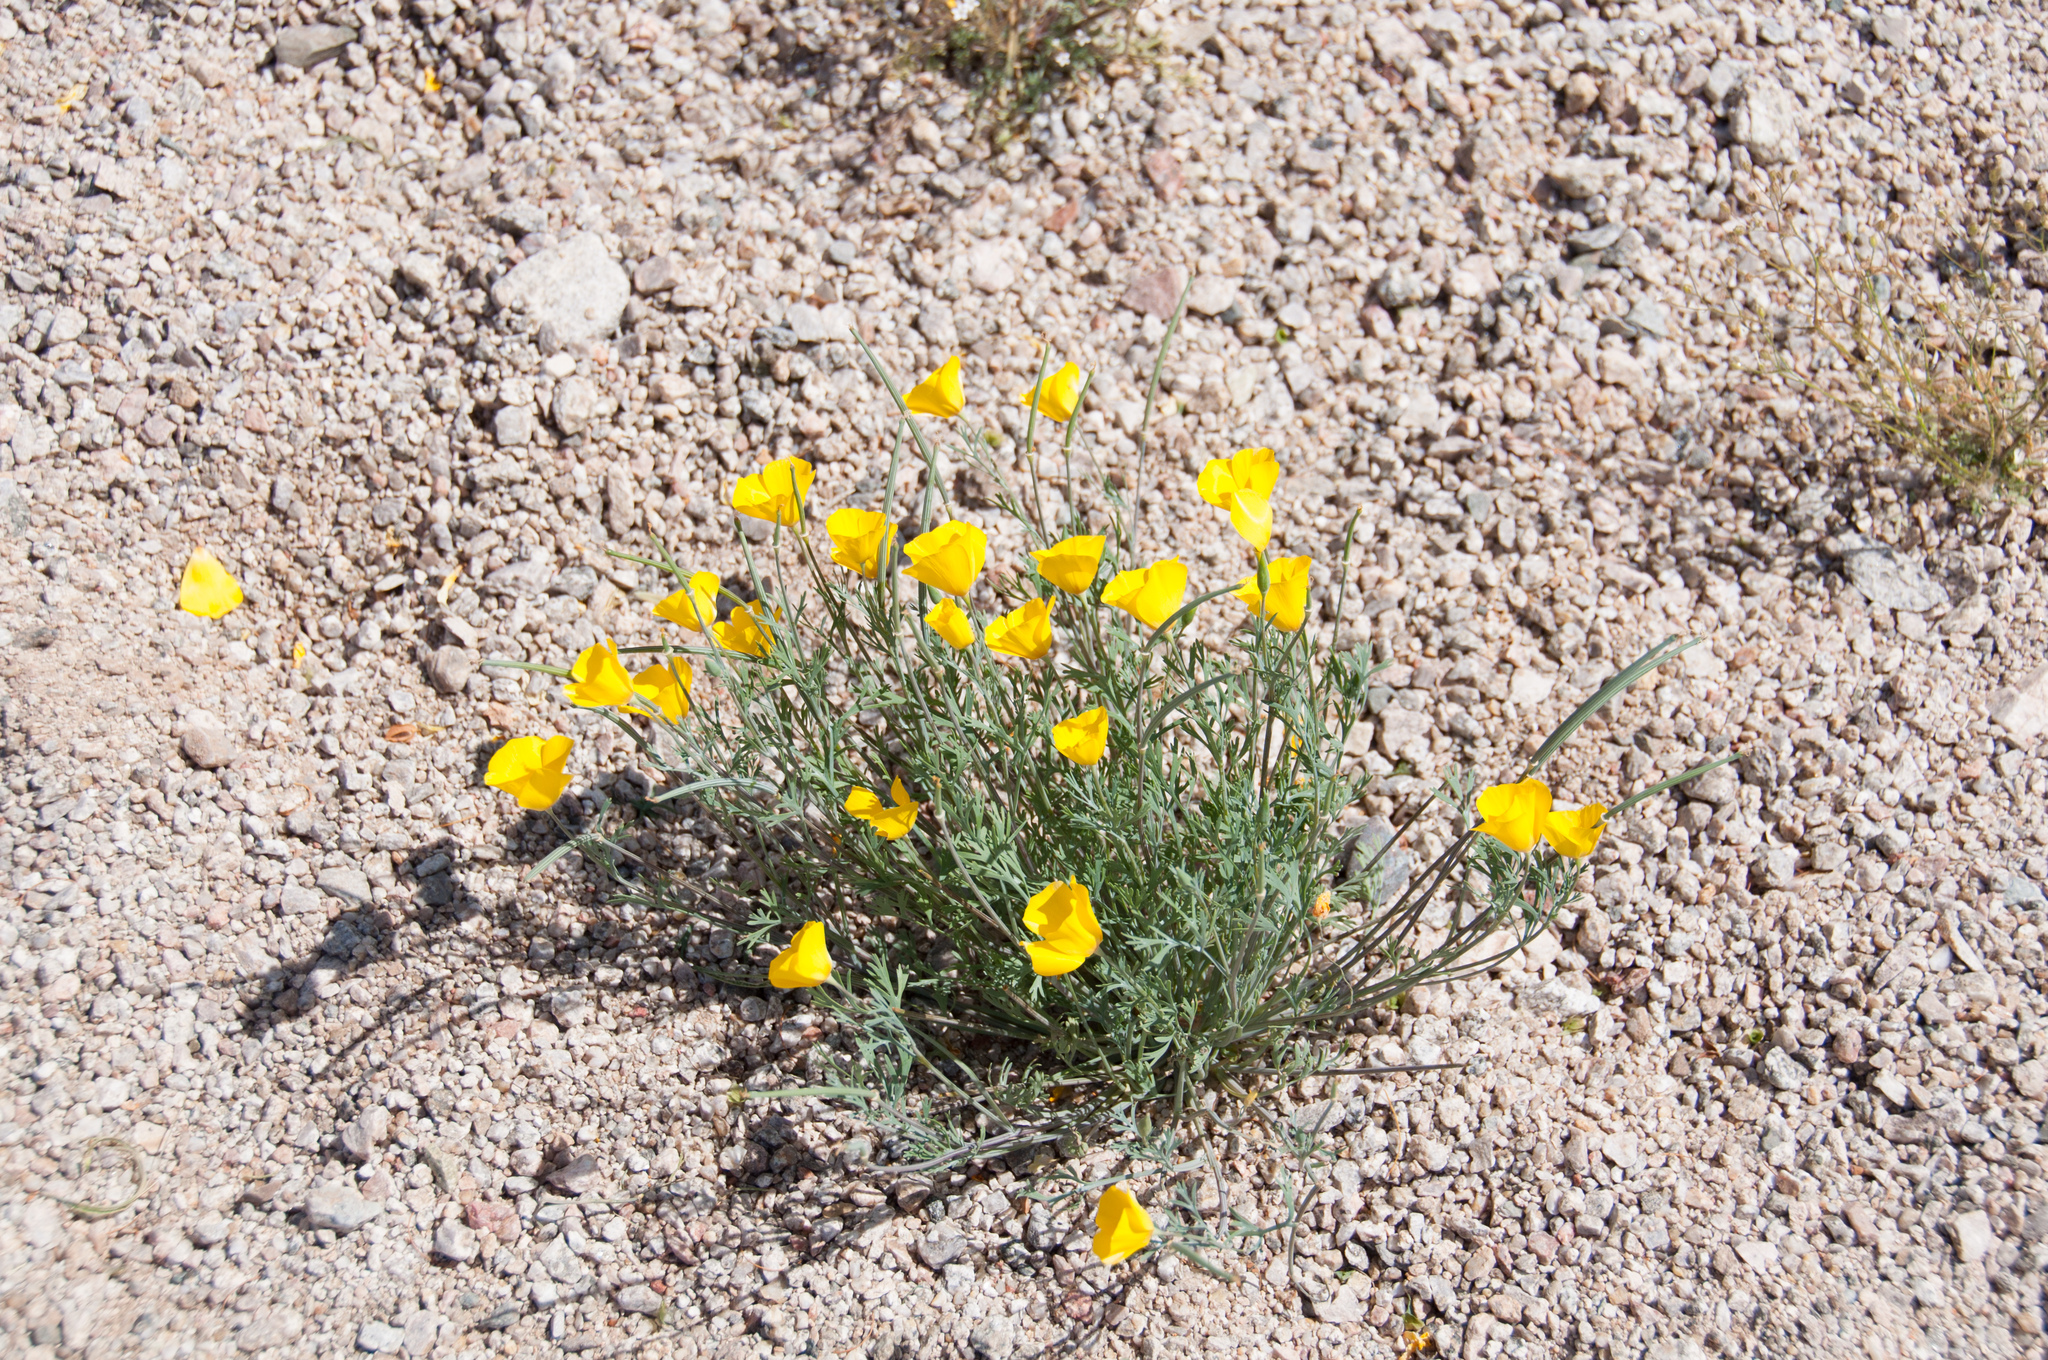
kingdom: Plantae
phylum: Tracheophyta
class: Magnoliopsida
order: Ranunculales
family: Papaveraceae
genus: Eschscholzia
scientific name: Eschscholzia californica
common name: California poppy
